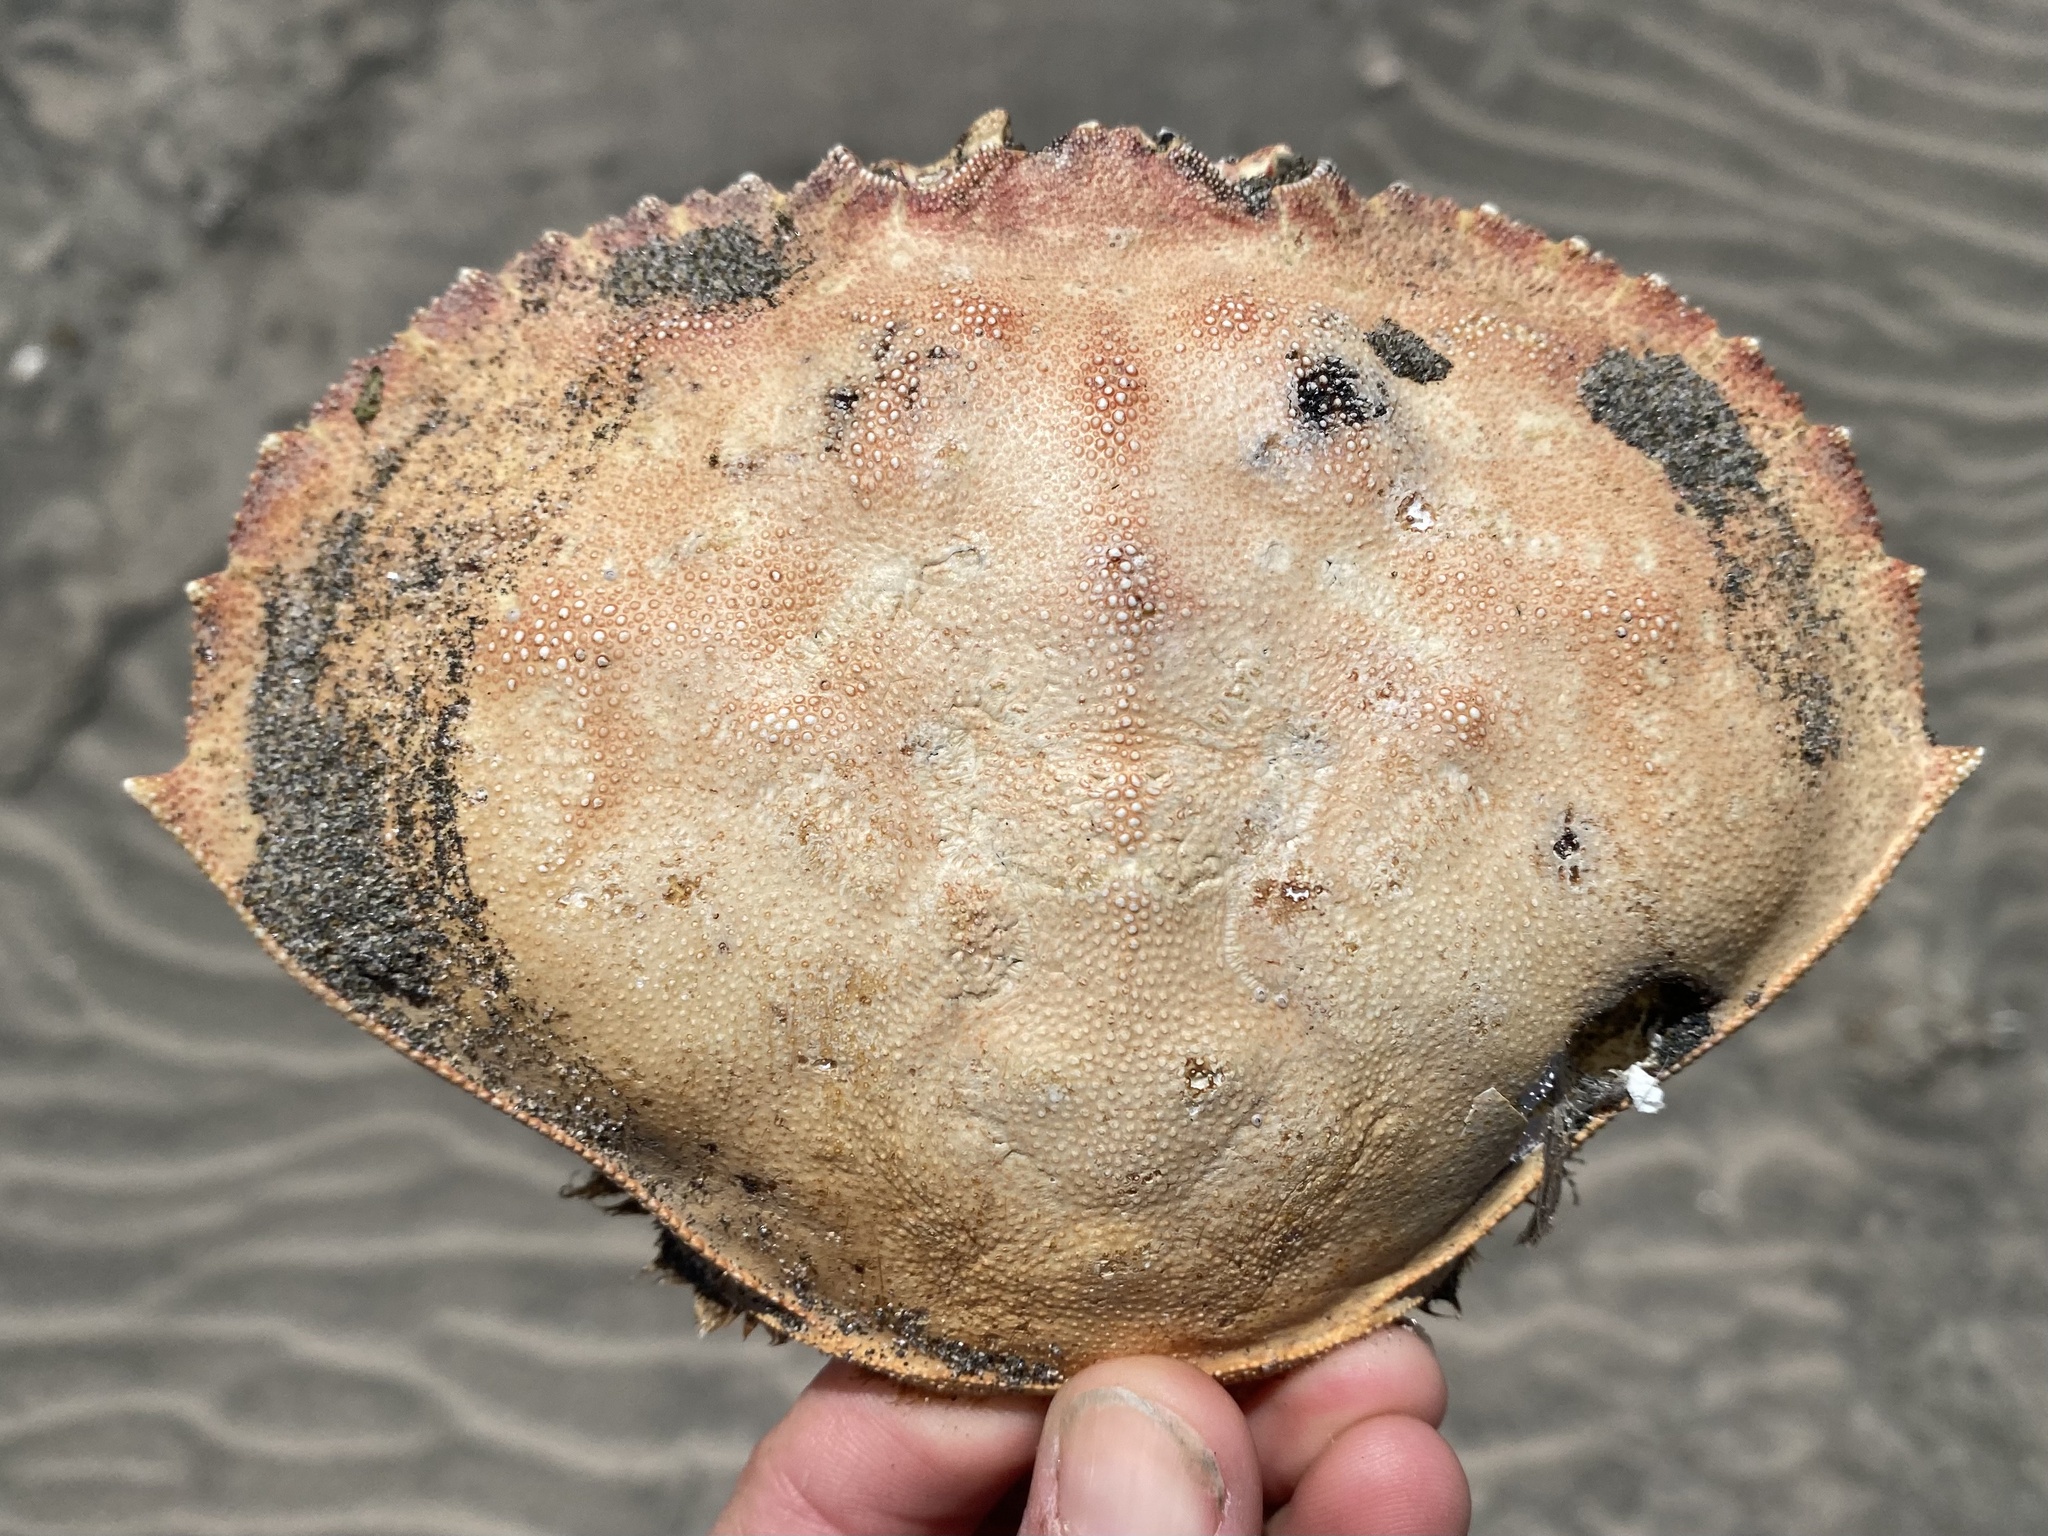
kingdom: Animalia
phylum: Arthropoda
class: Malacostraca
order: Decapoda
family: Cancridae
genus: Metacarcinus
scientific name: Metacarcinus magister
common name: Californian crab
